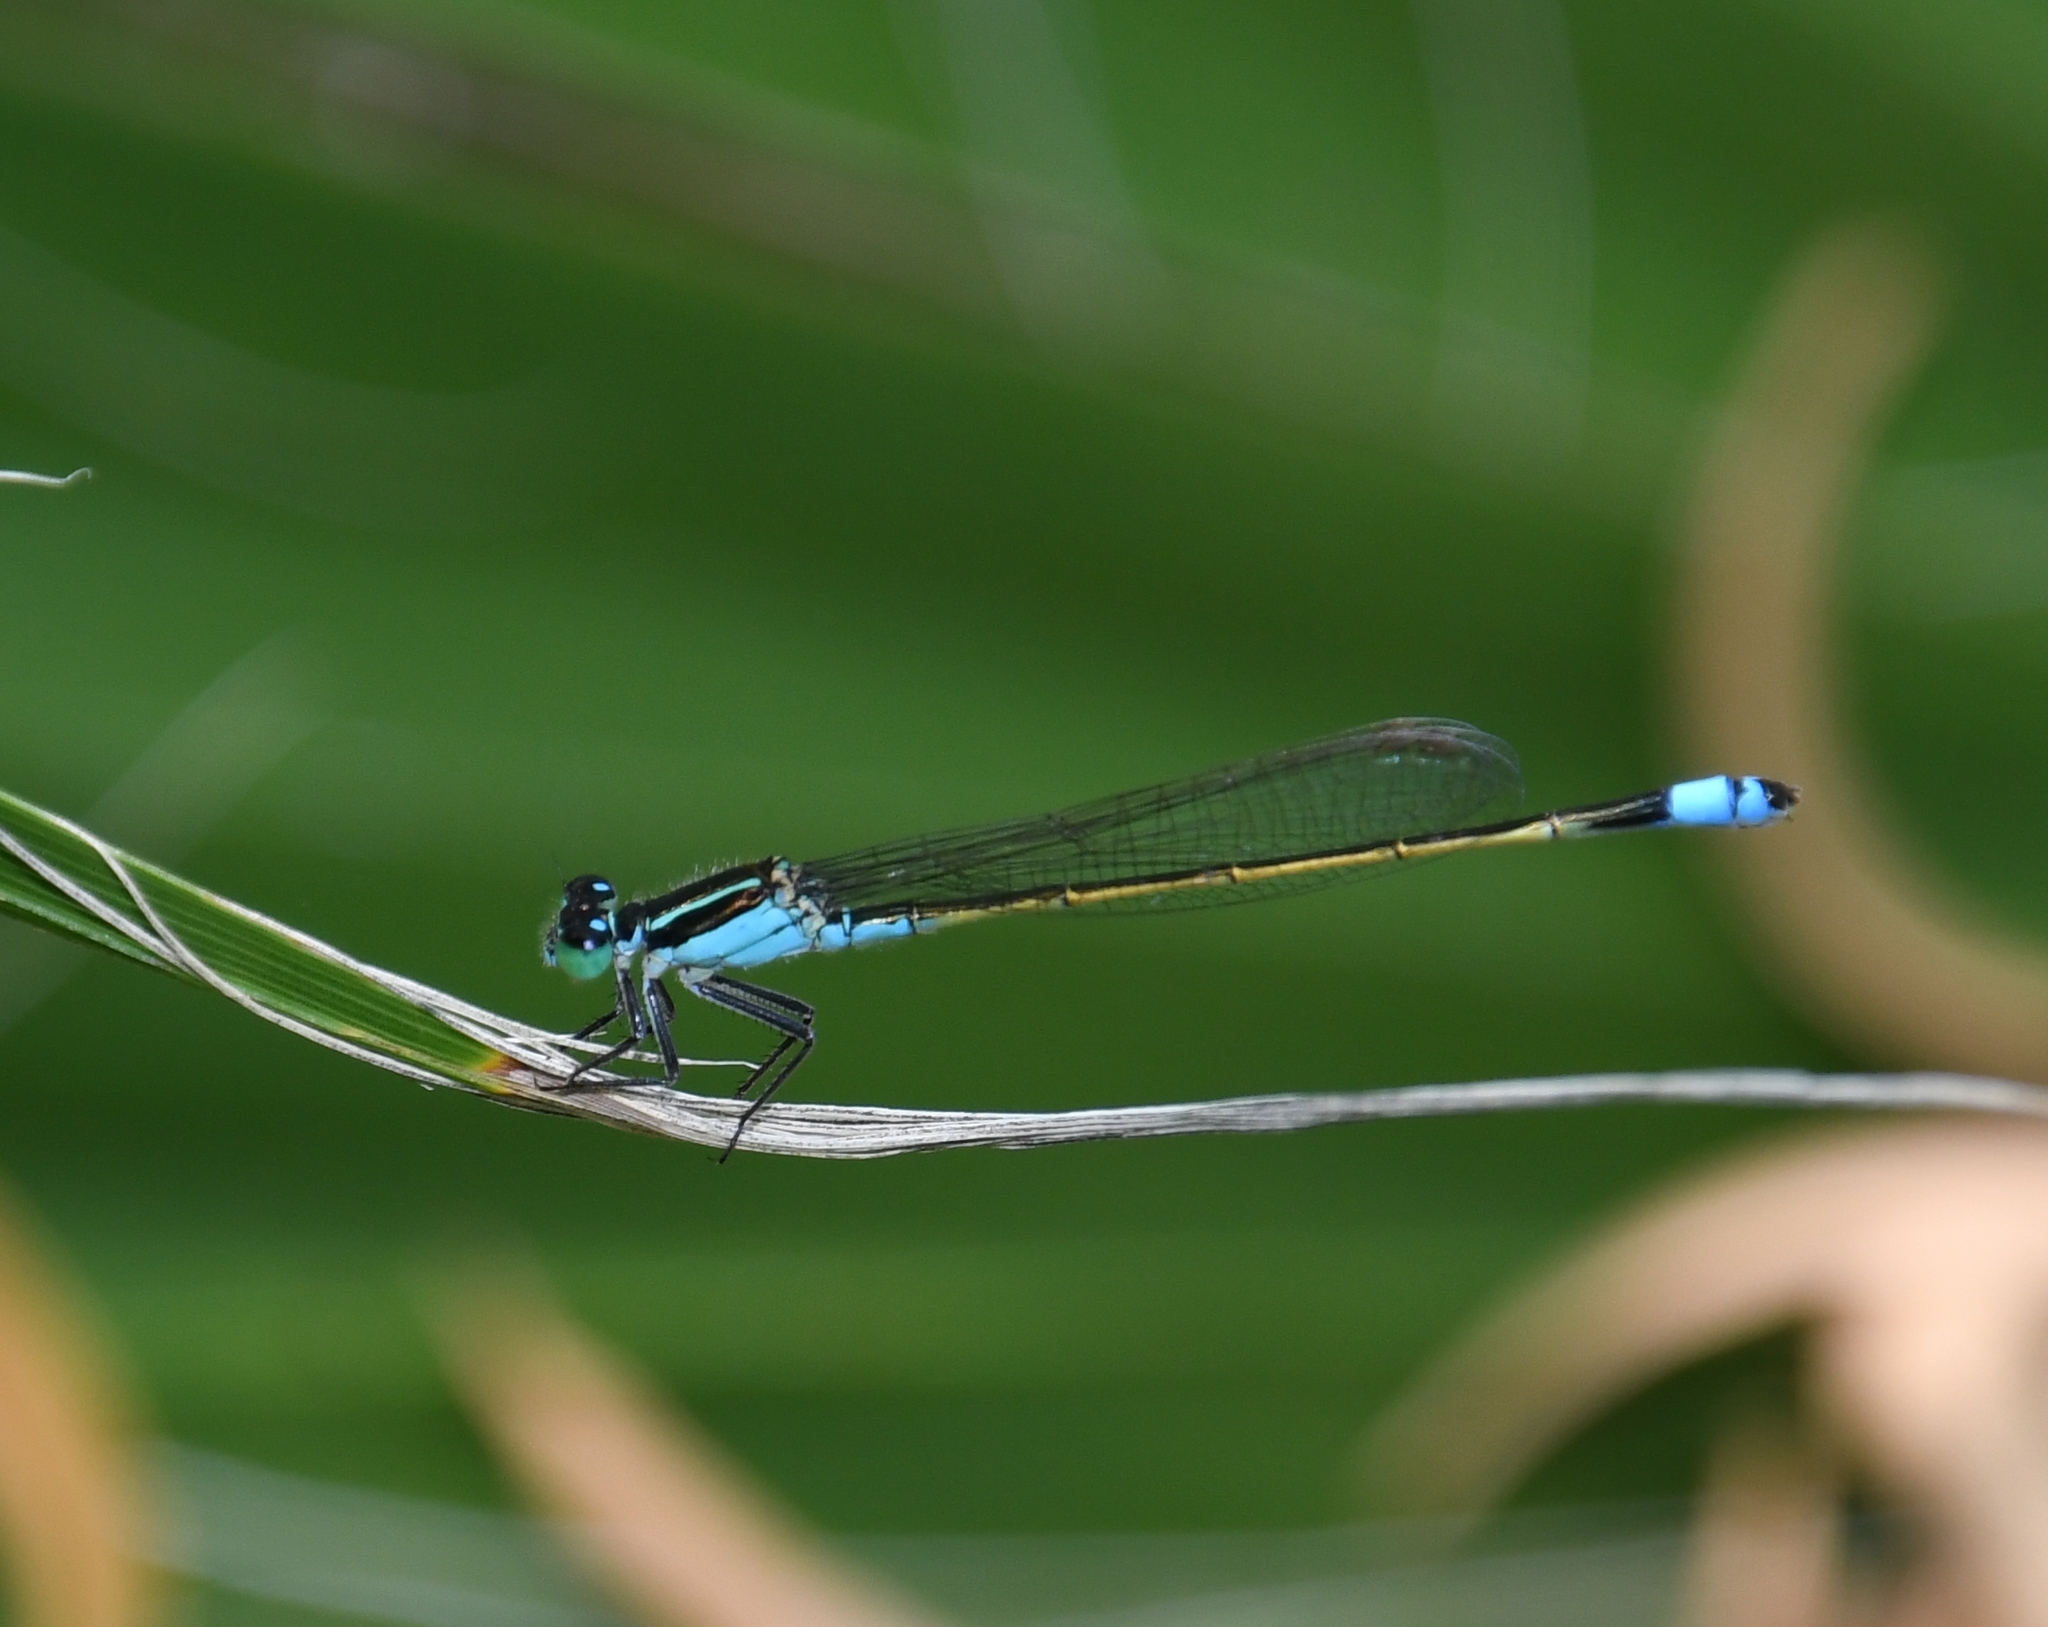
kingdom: Animalia
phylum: Arthropoda
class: Insecta
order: Odonata
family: Coenagrionidae
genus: Ischnura
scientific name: Ischnura ramburii
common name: Rambur's forktail
